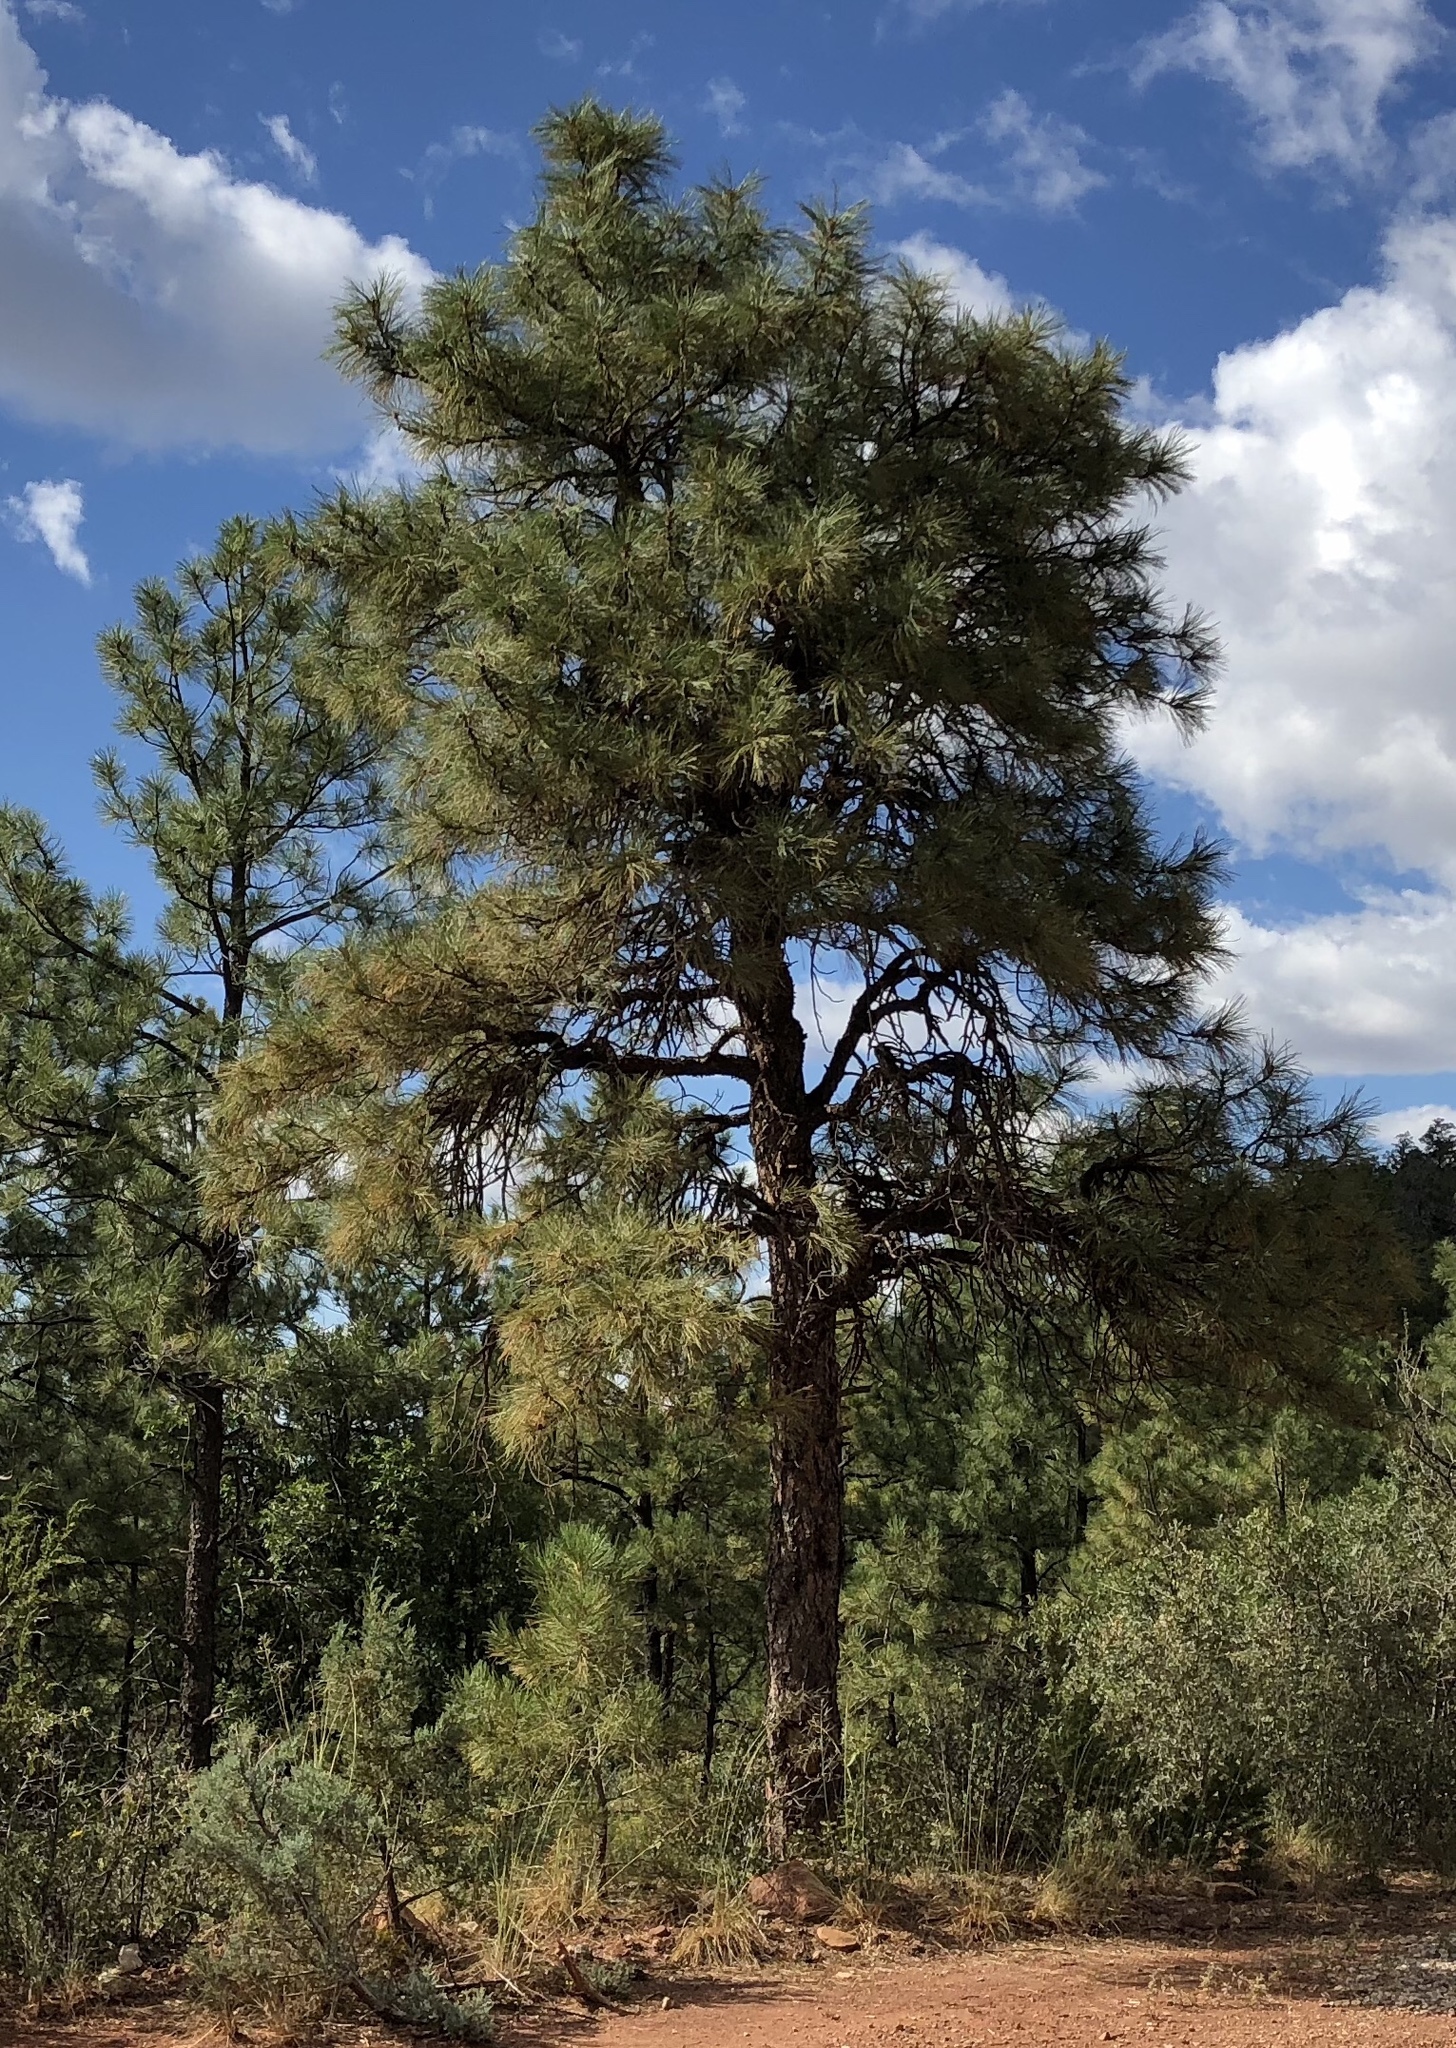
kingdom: Plantae
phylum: Tracheophyta
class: Pinopsida
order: Pinales
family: Pinaceae
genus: Pinus
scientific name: Pinus ponderosa
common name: Western yellow-pine
